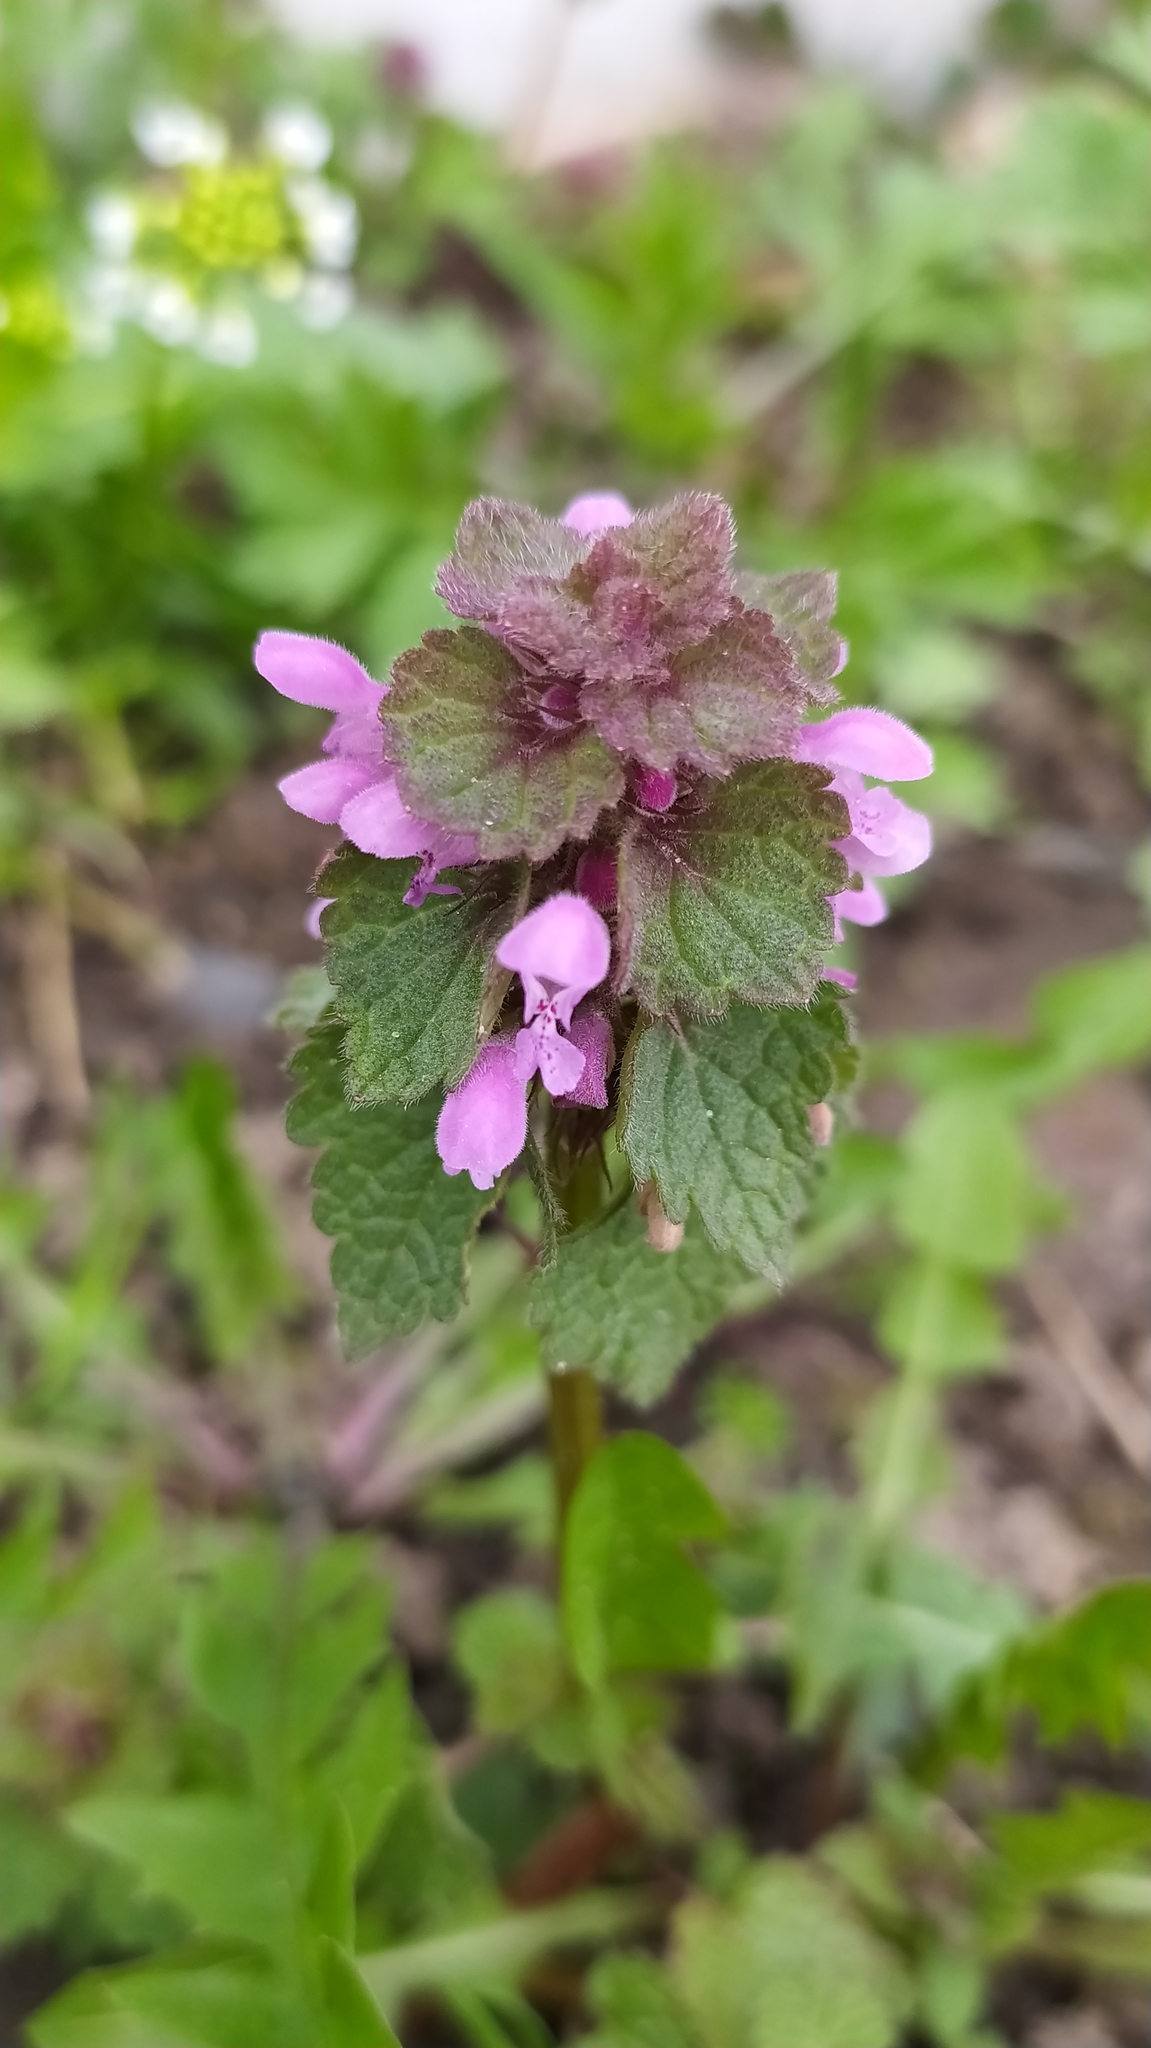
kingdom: Plantae
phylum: Tracheophyta
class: Magnoliopsida
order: Lamiales
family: Lamiaceae
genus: Lamium
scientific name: Lamium purpureum
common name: Red dead-nettle
